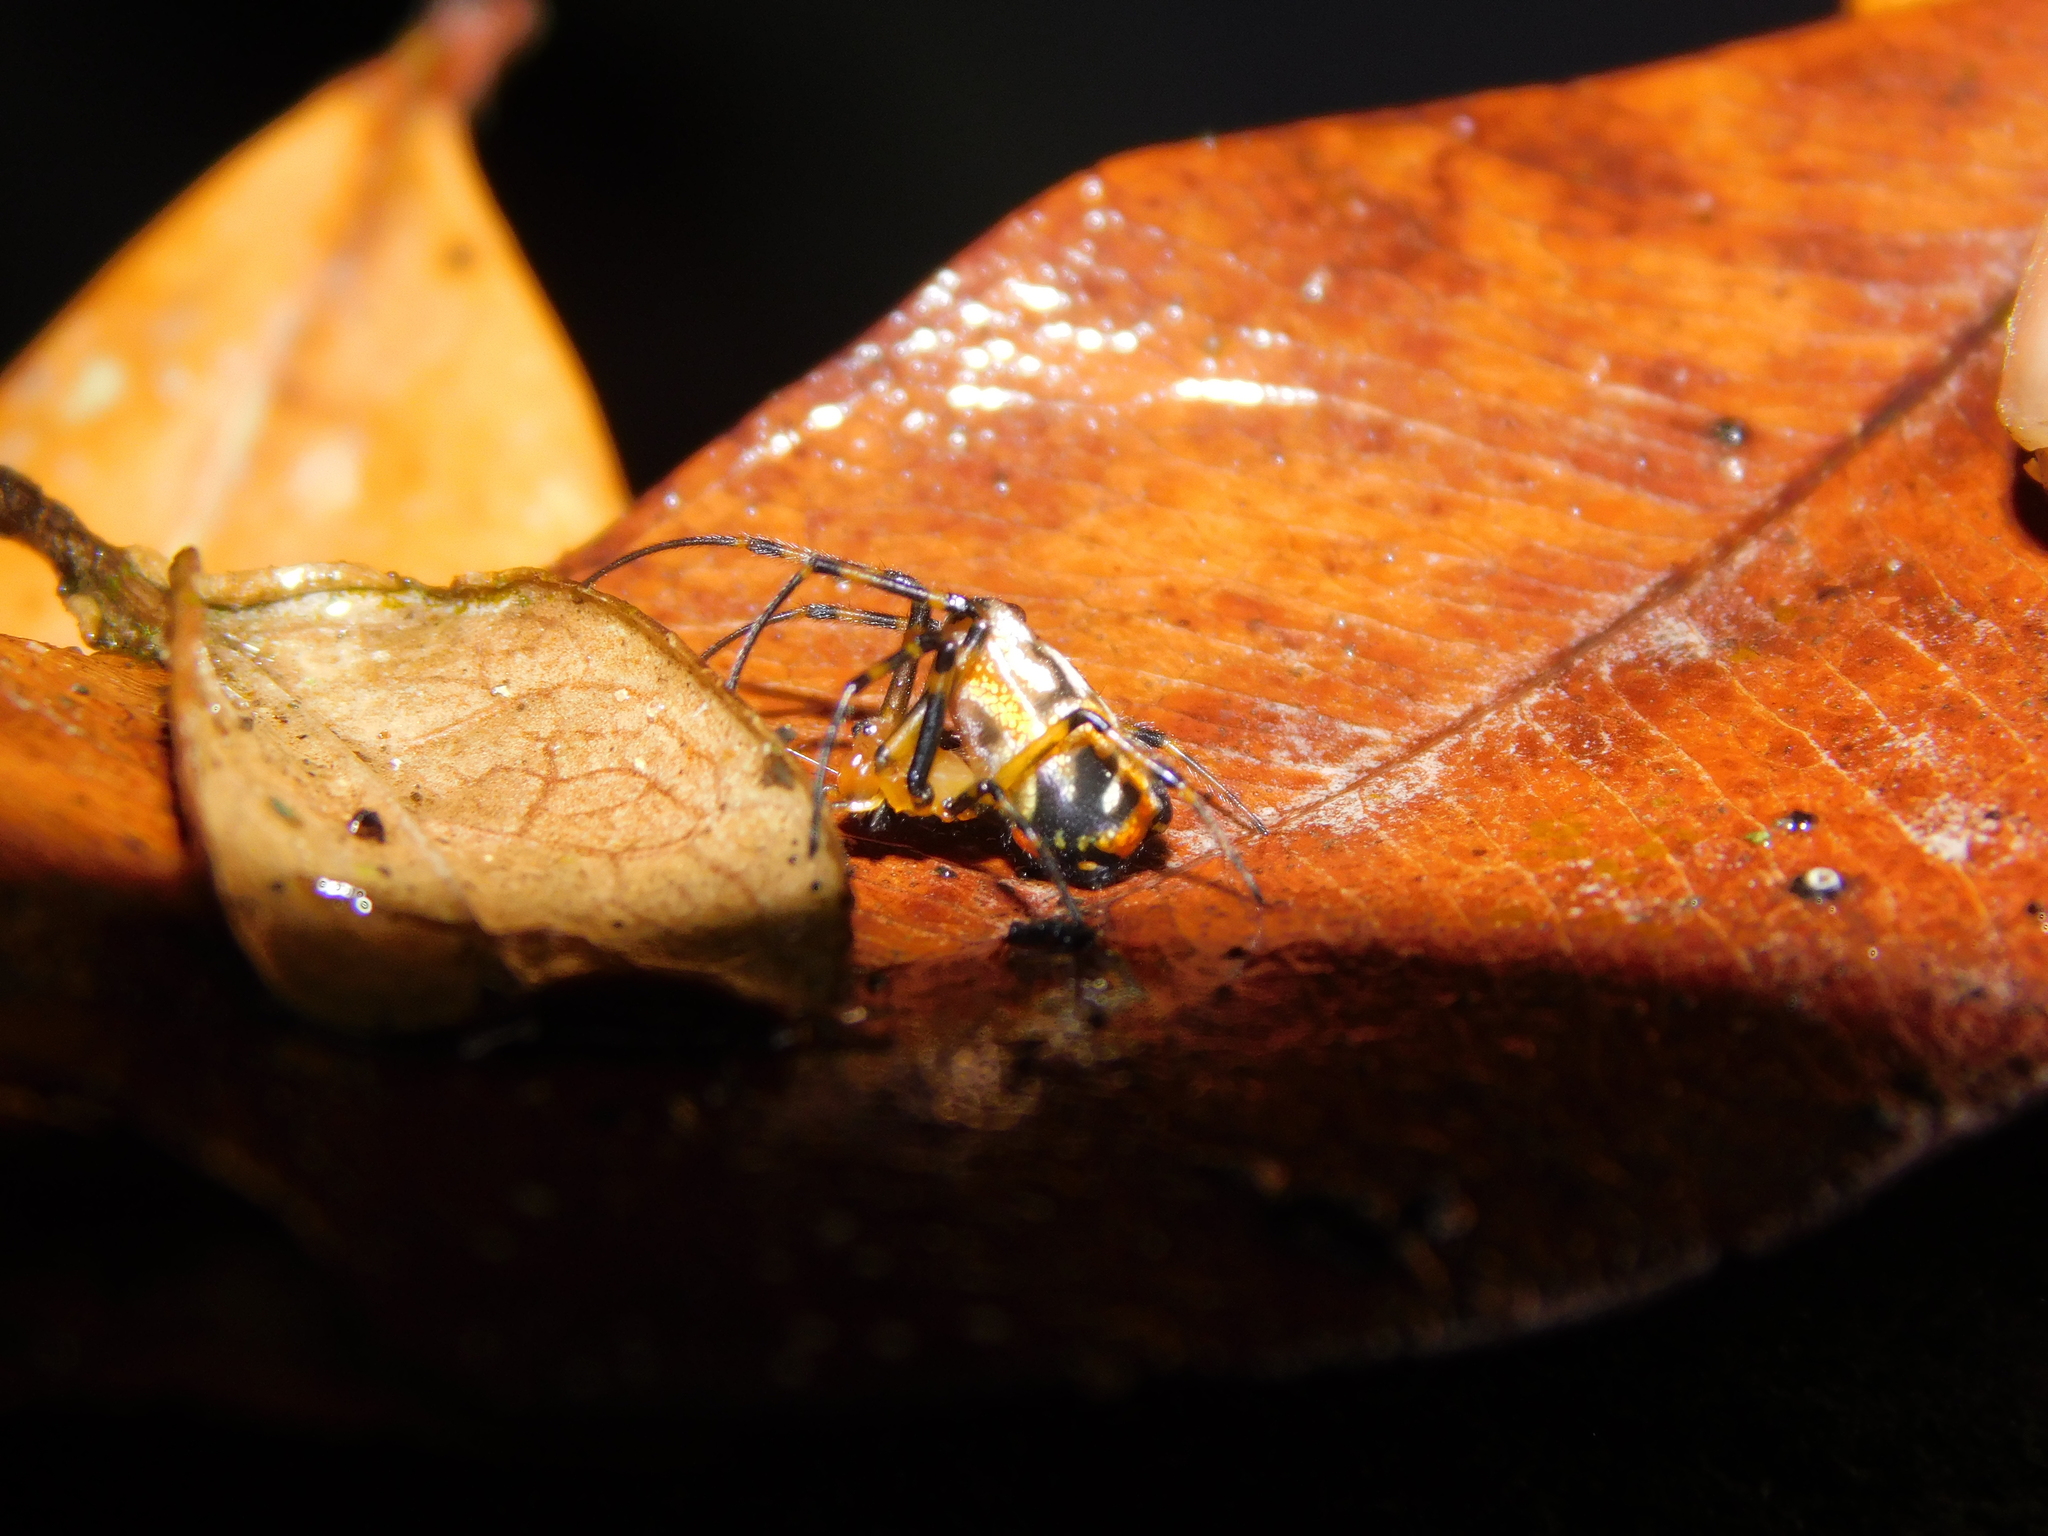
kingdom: Animalia
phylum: Arthropoda
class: Arachnida
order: Araneae
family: Tetragnathidae
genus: Leucauge
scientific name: Leucauge fastigata
